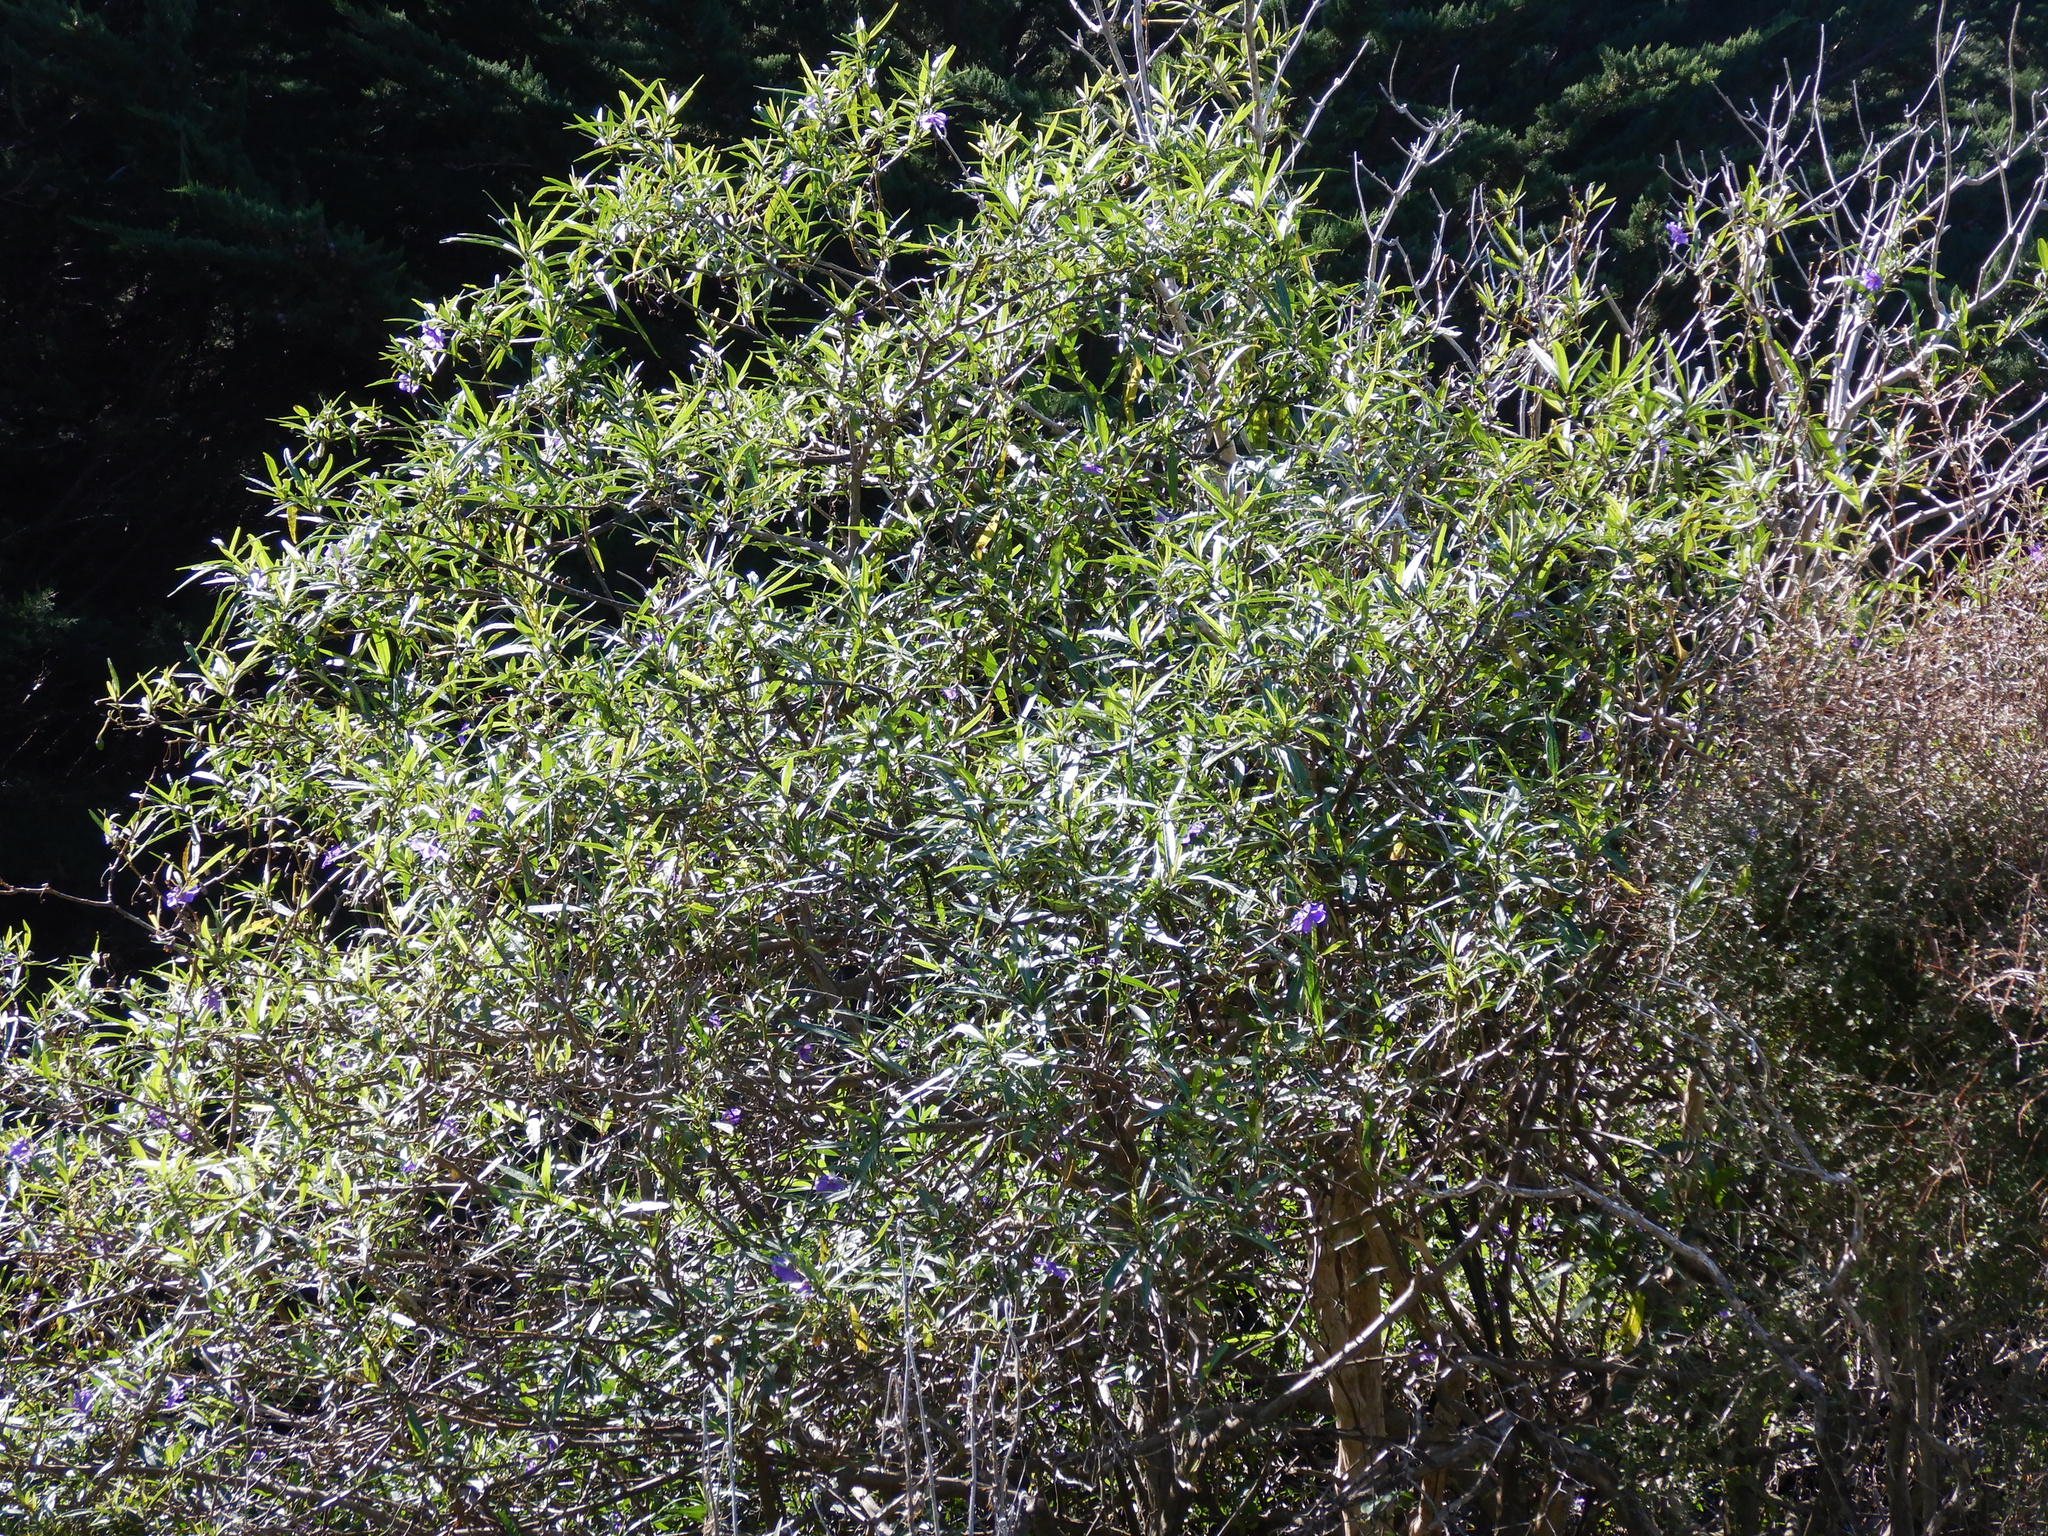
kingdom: Plantae
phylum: Tracheophyta
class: Magnoliopsida
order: Solanales
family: Solanaceae
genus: Solanum
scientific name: Solanum laciniatum
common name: Kangaroo-apple
